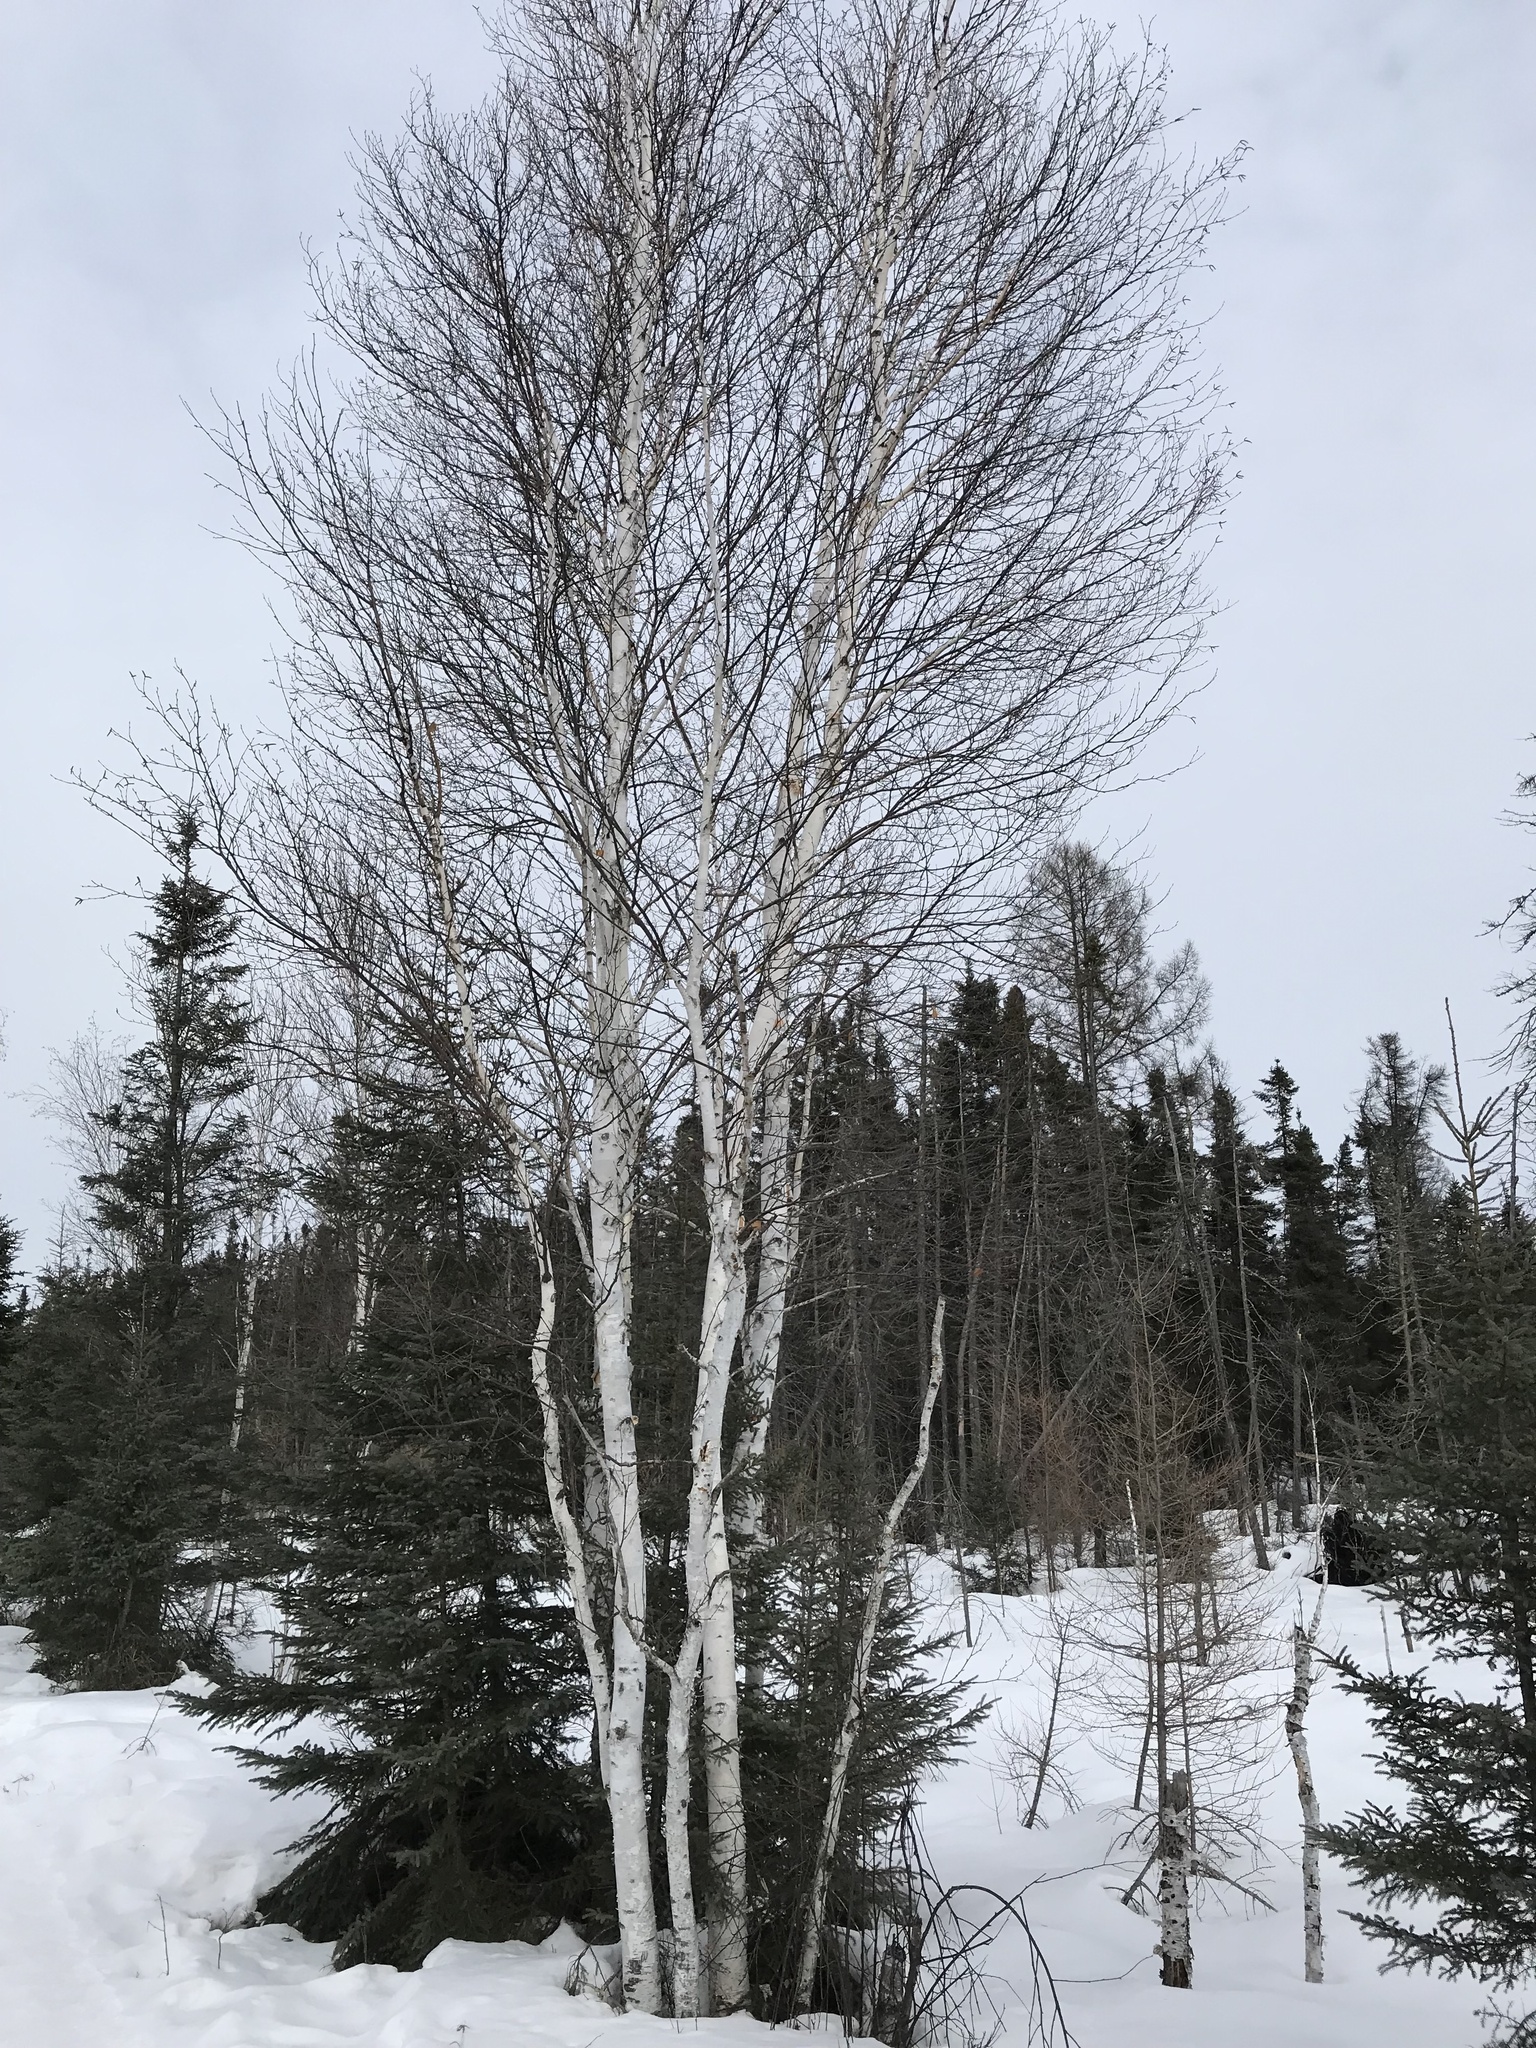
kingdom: Plantae
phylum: Tracheophyta
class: Magnoliopsida
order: Fagales
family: Betulaceae
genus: Betula
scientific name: Betula papyrifera
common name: Paper birch
